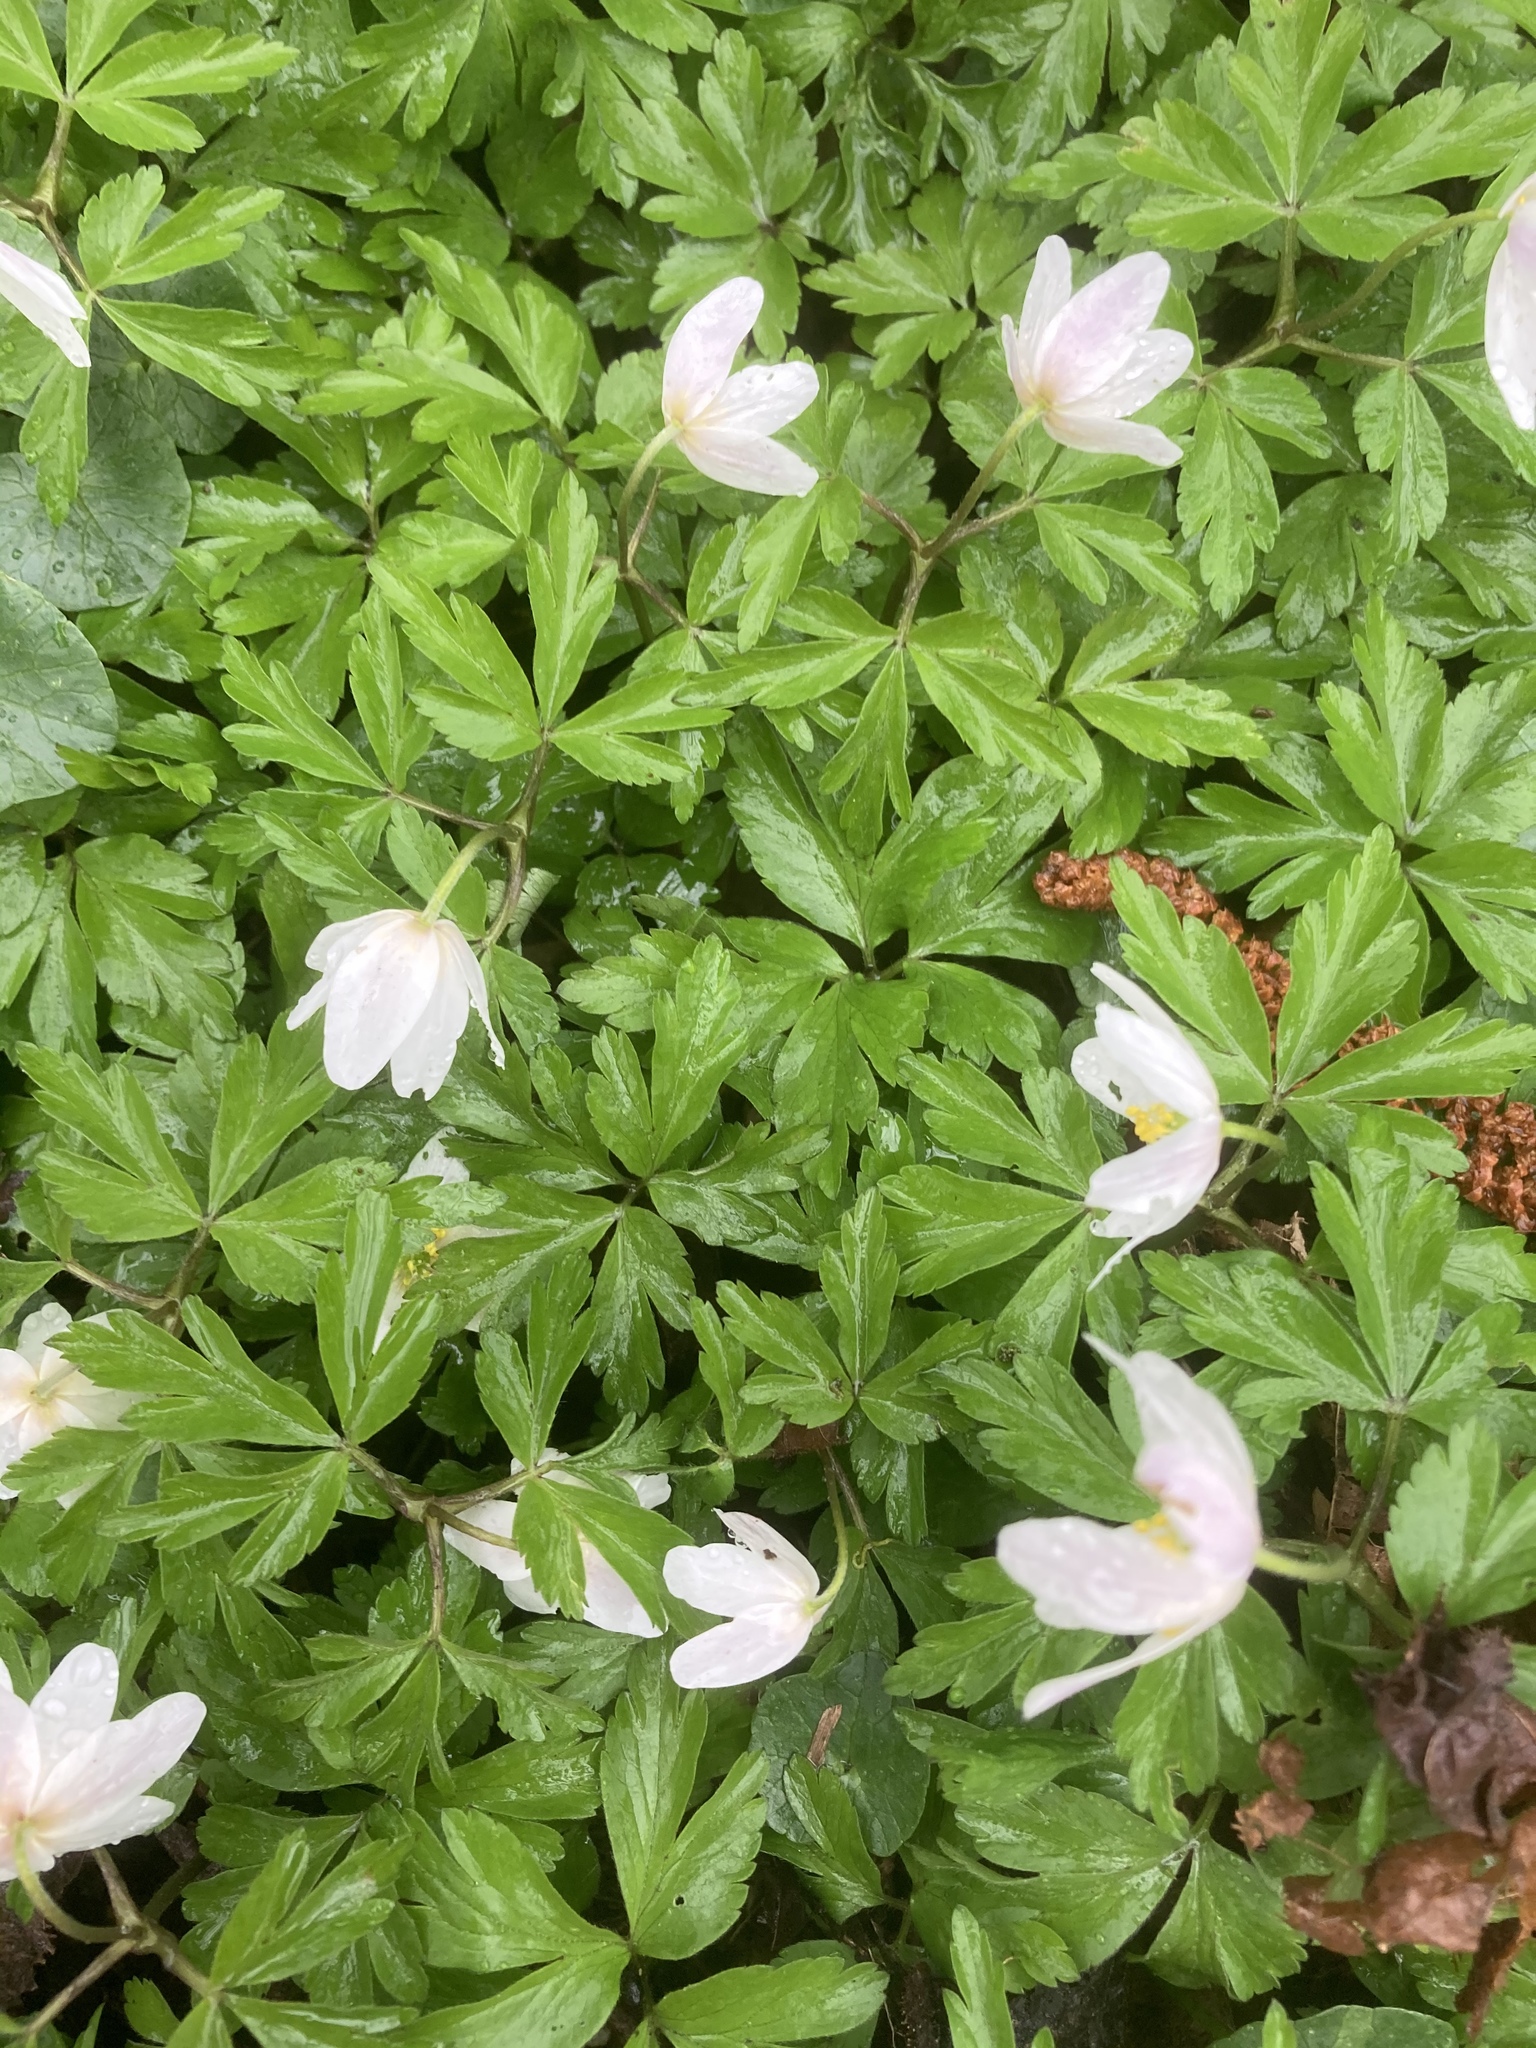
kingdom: Plantae
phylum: Tracheophyta
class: Magnoliopsida
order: Ranunculales
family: Ranunculaceae
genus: Anemone
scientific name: Anemone nemorosa
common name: Wood anemone
